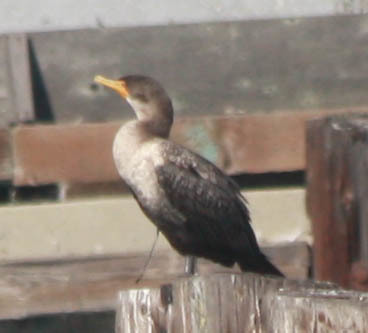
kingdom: Animalia
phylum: Chordata
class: Aves
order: Suliformes
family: Phalacrocoracidae
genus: Phalacrocorax
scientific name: Phalacrocorax auritus
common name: Double-crested cormorant
